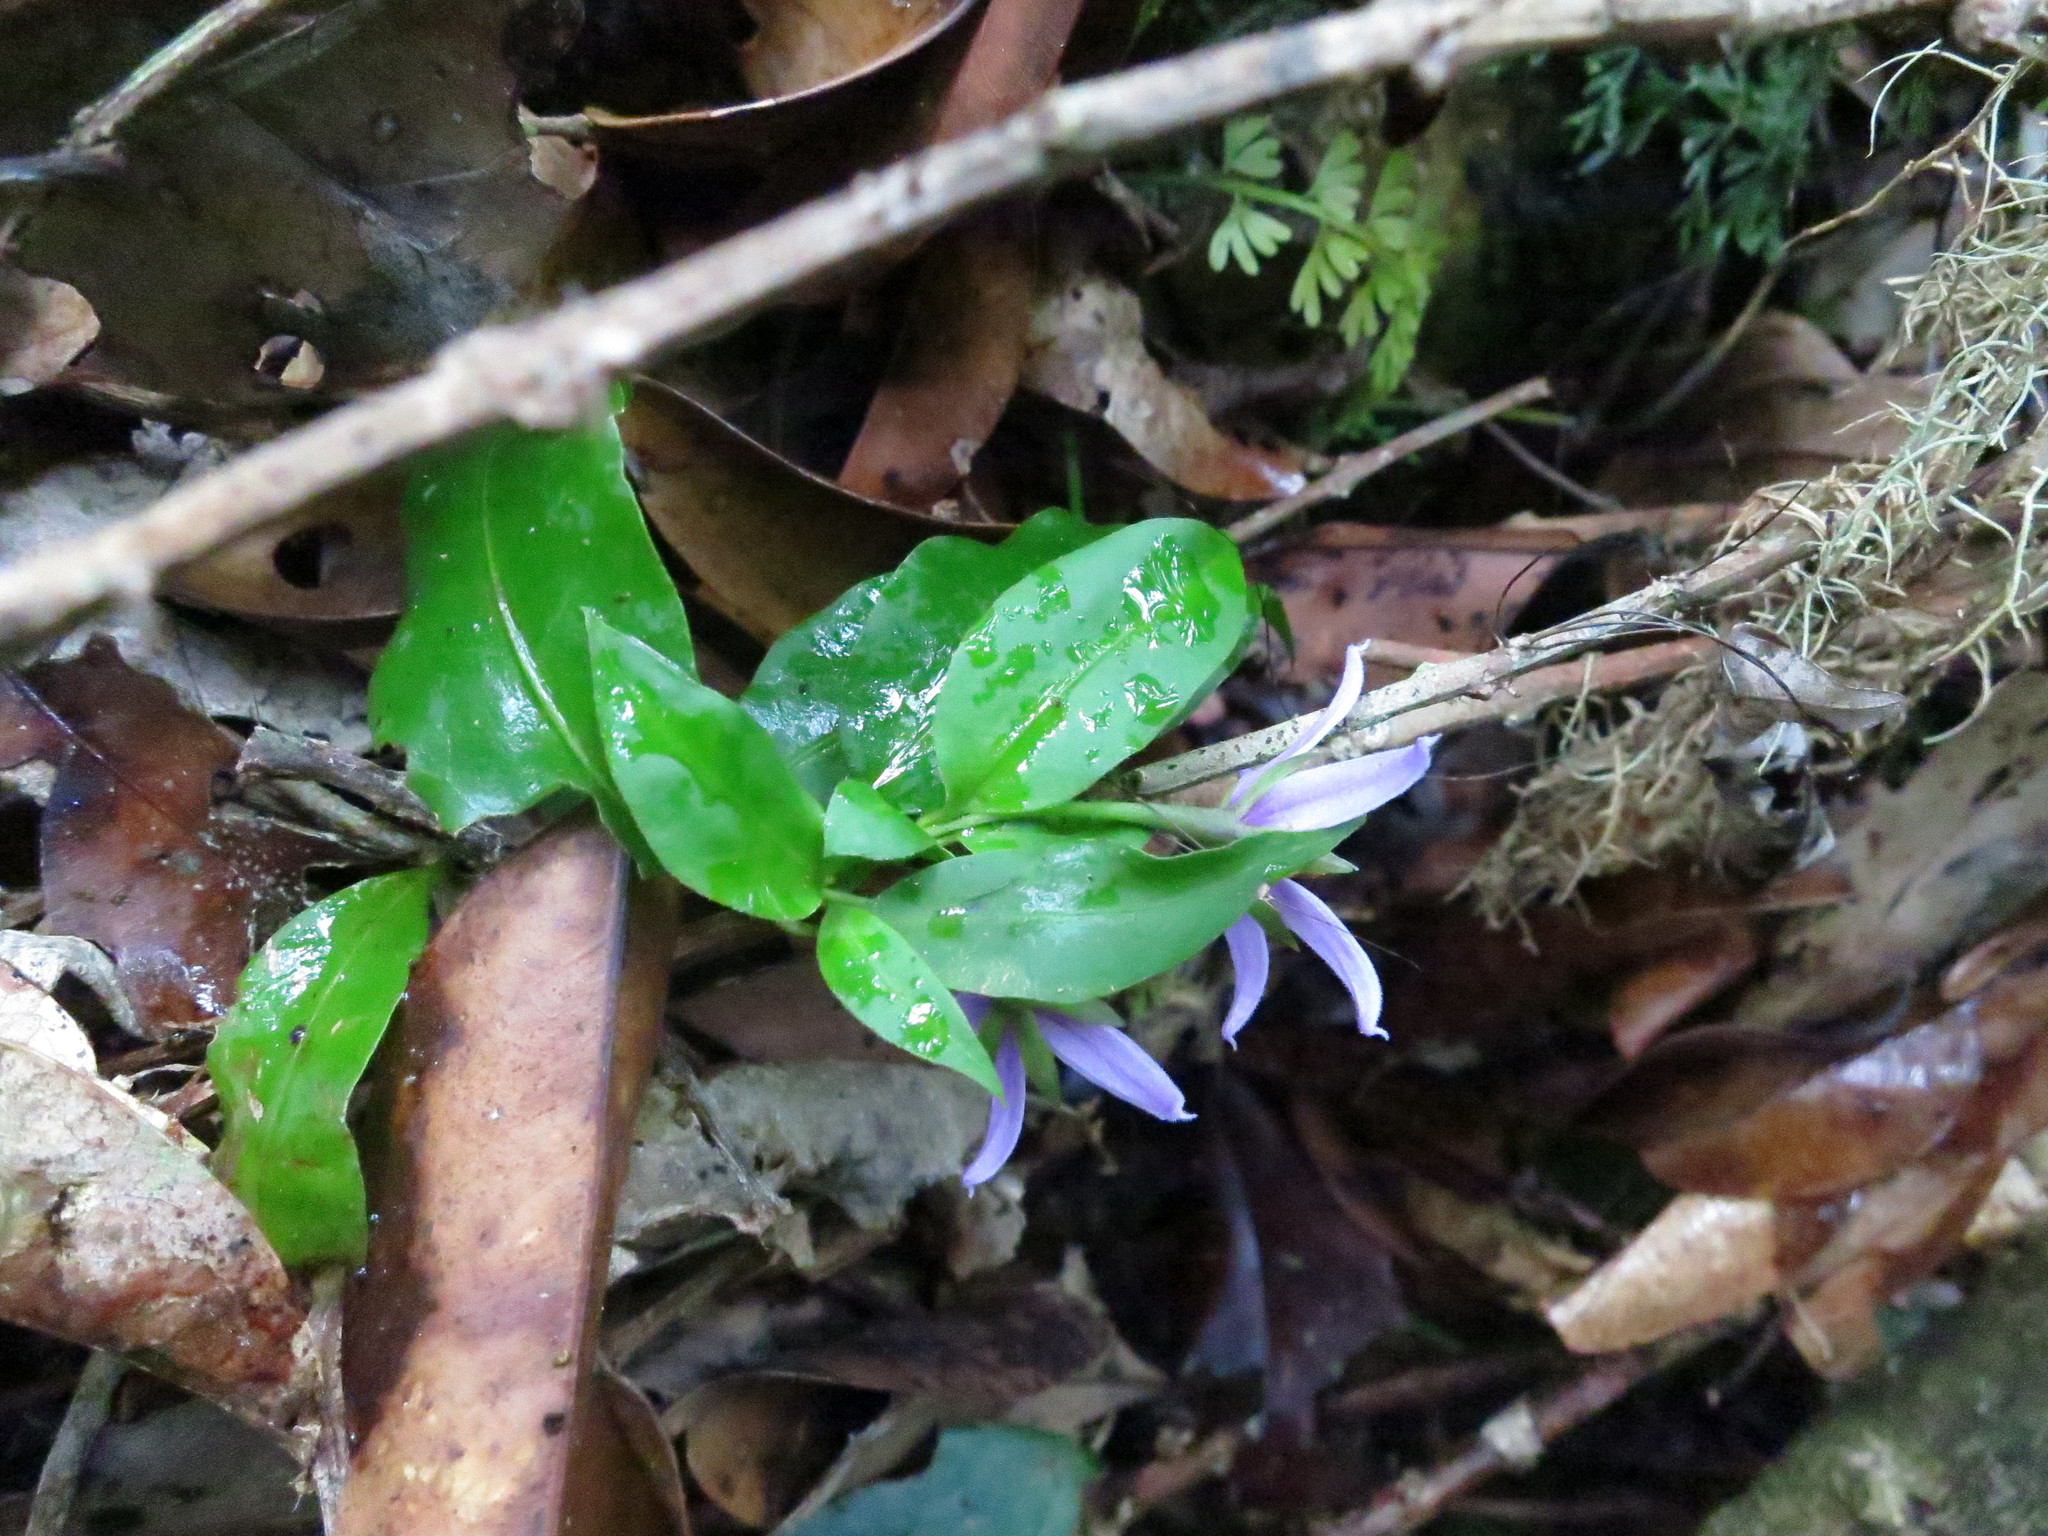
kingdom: Plantae
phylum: Tracheophyta
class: Magnoliopsida
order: Solanales
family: Solanaceae
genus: Solanum
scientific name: Solanum humblotii
